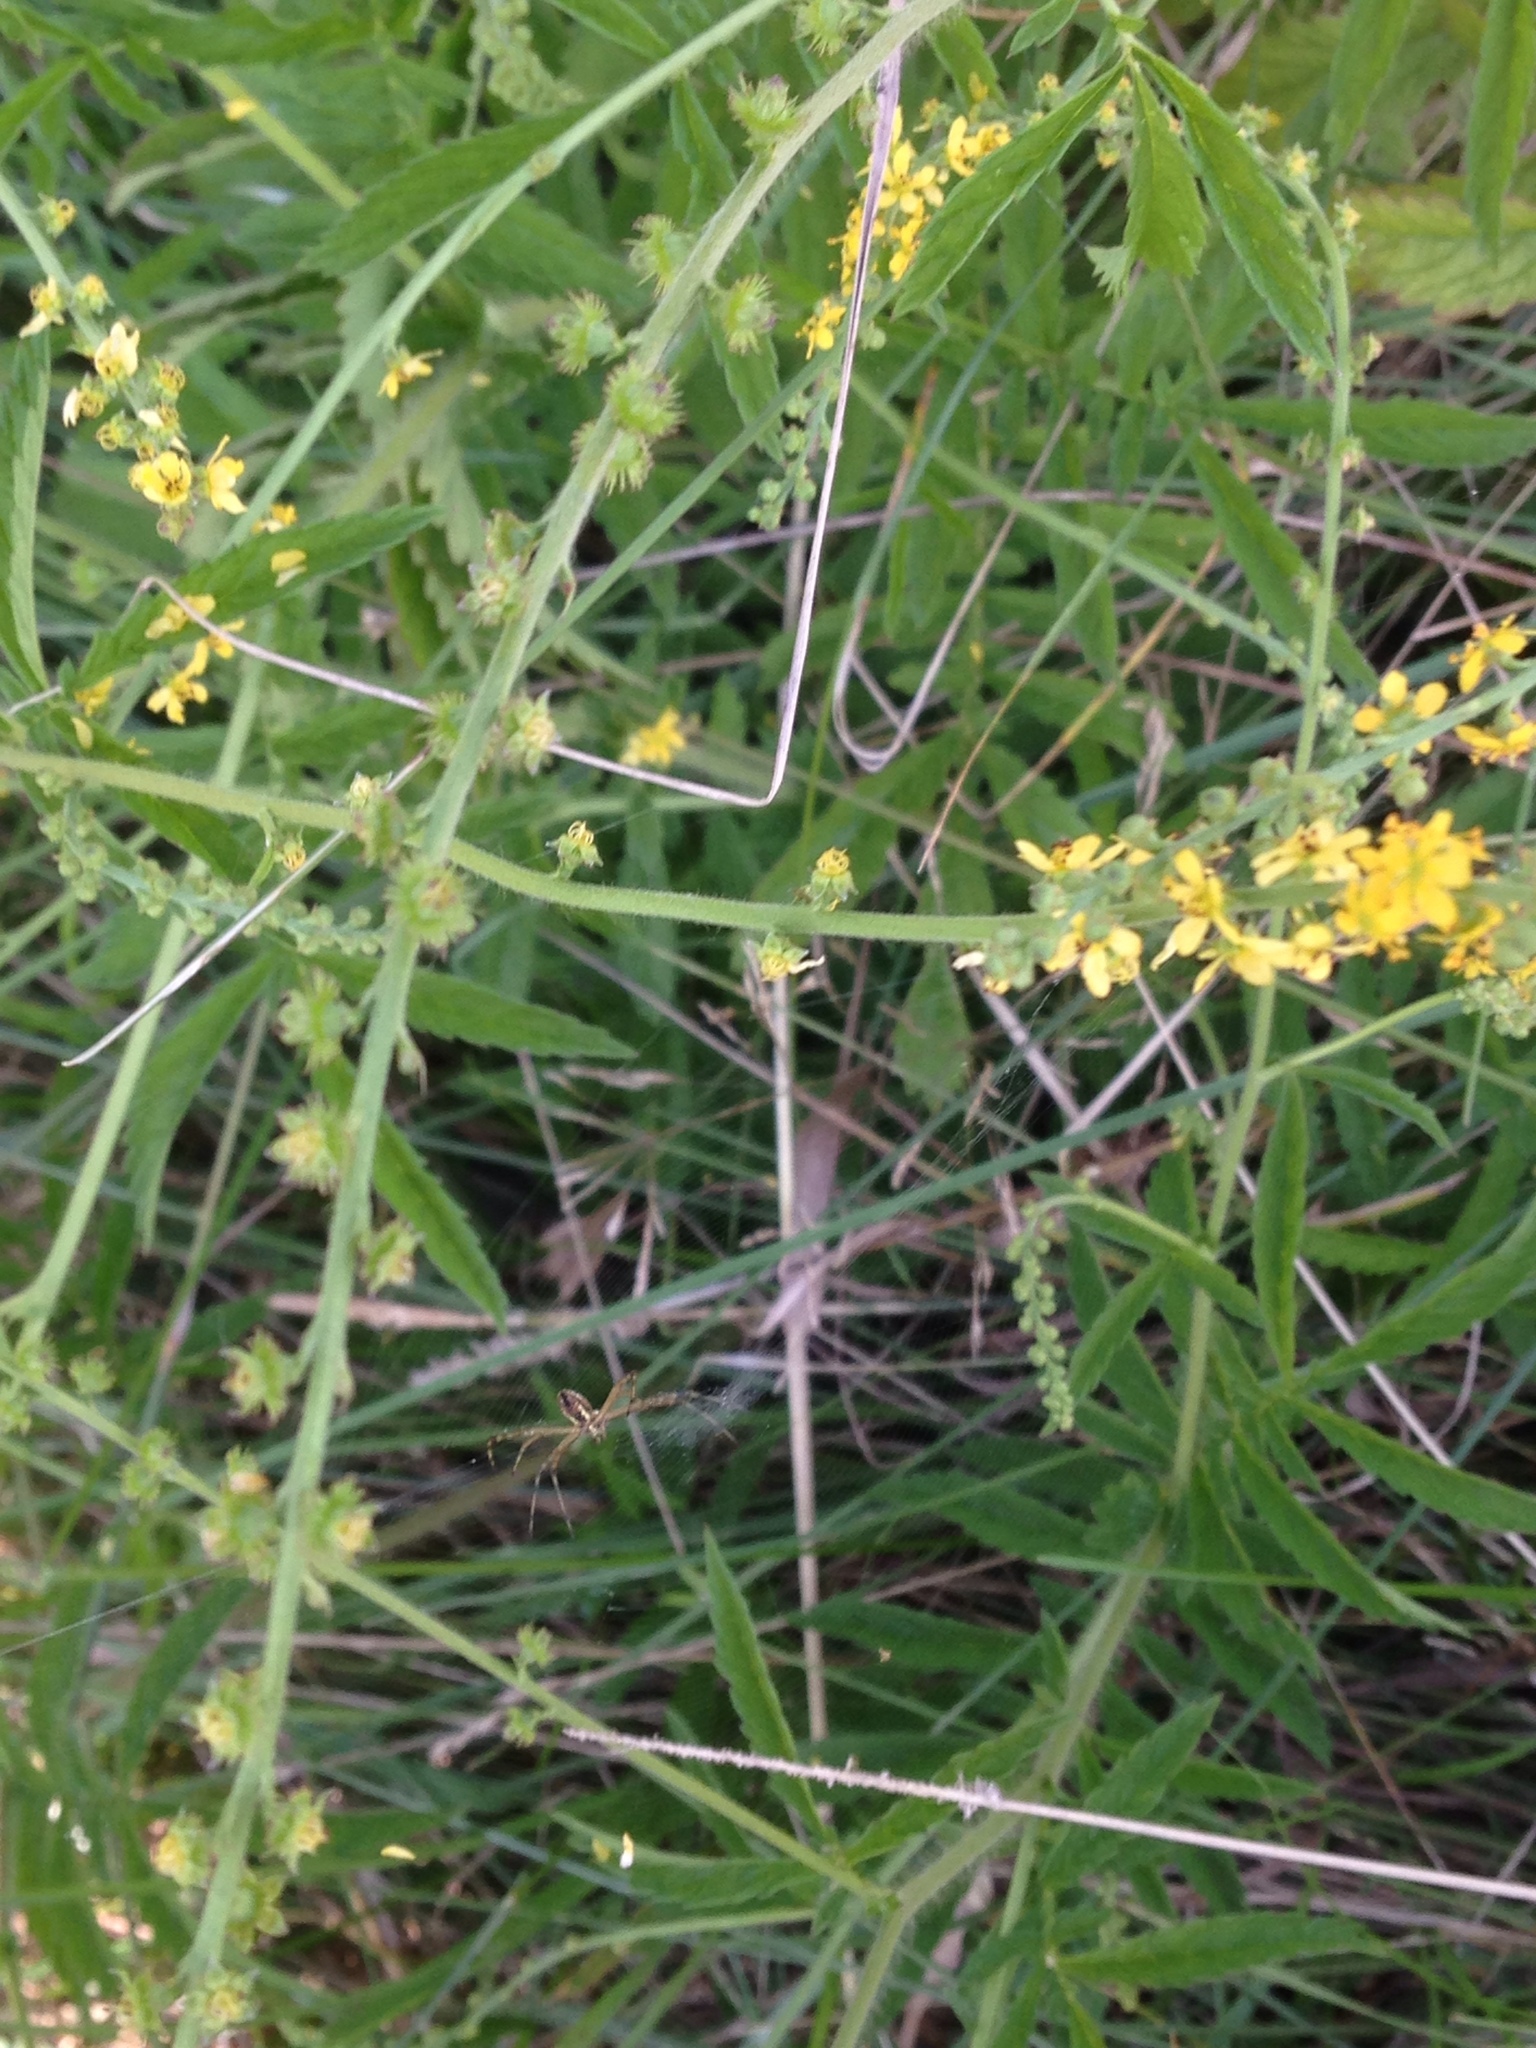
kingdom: Plantae
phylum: Tracheophyta
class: Magnoliopsida
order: Rosales
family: Rosaceae
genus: Agrimonia
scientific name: Agrimonia parviflora
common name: Harvest-lice
